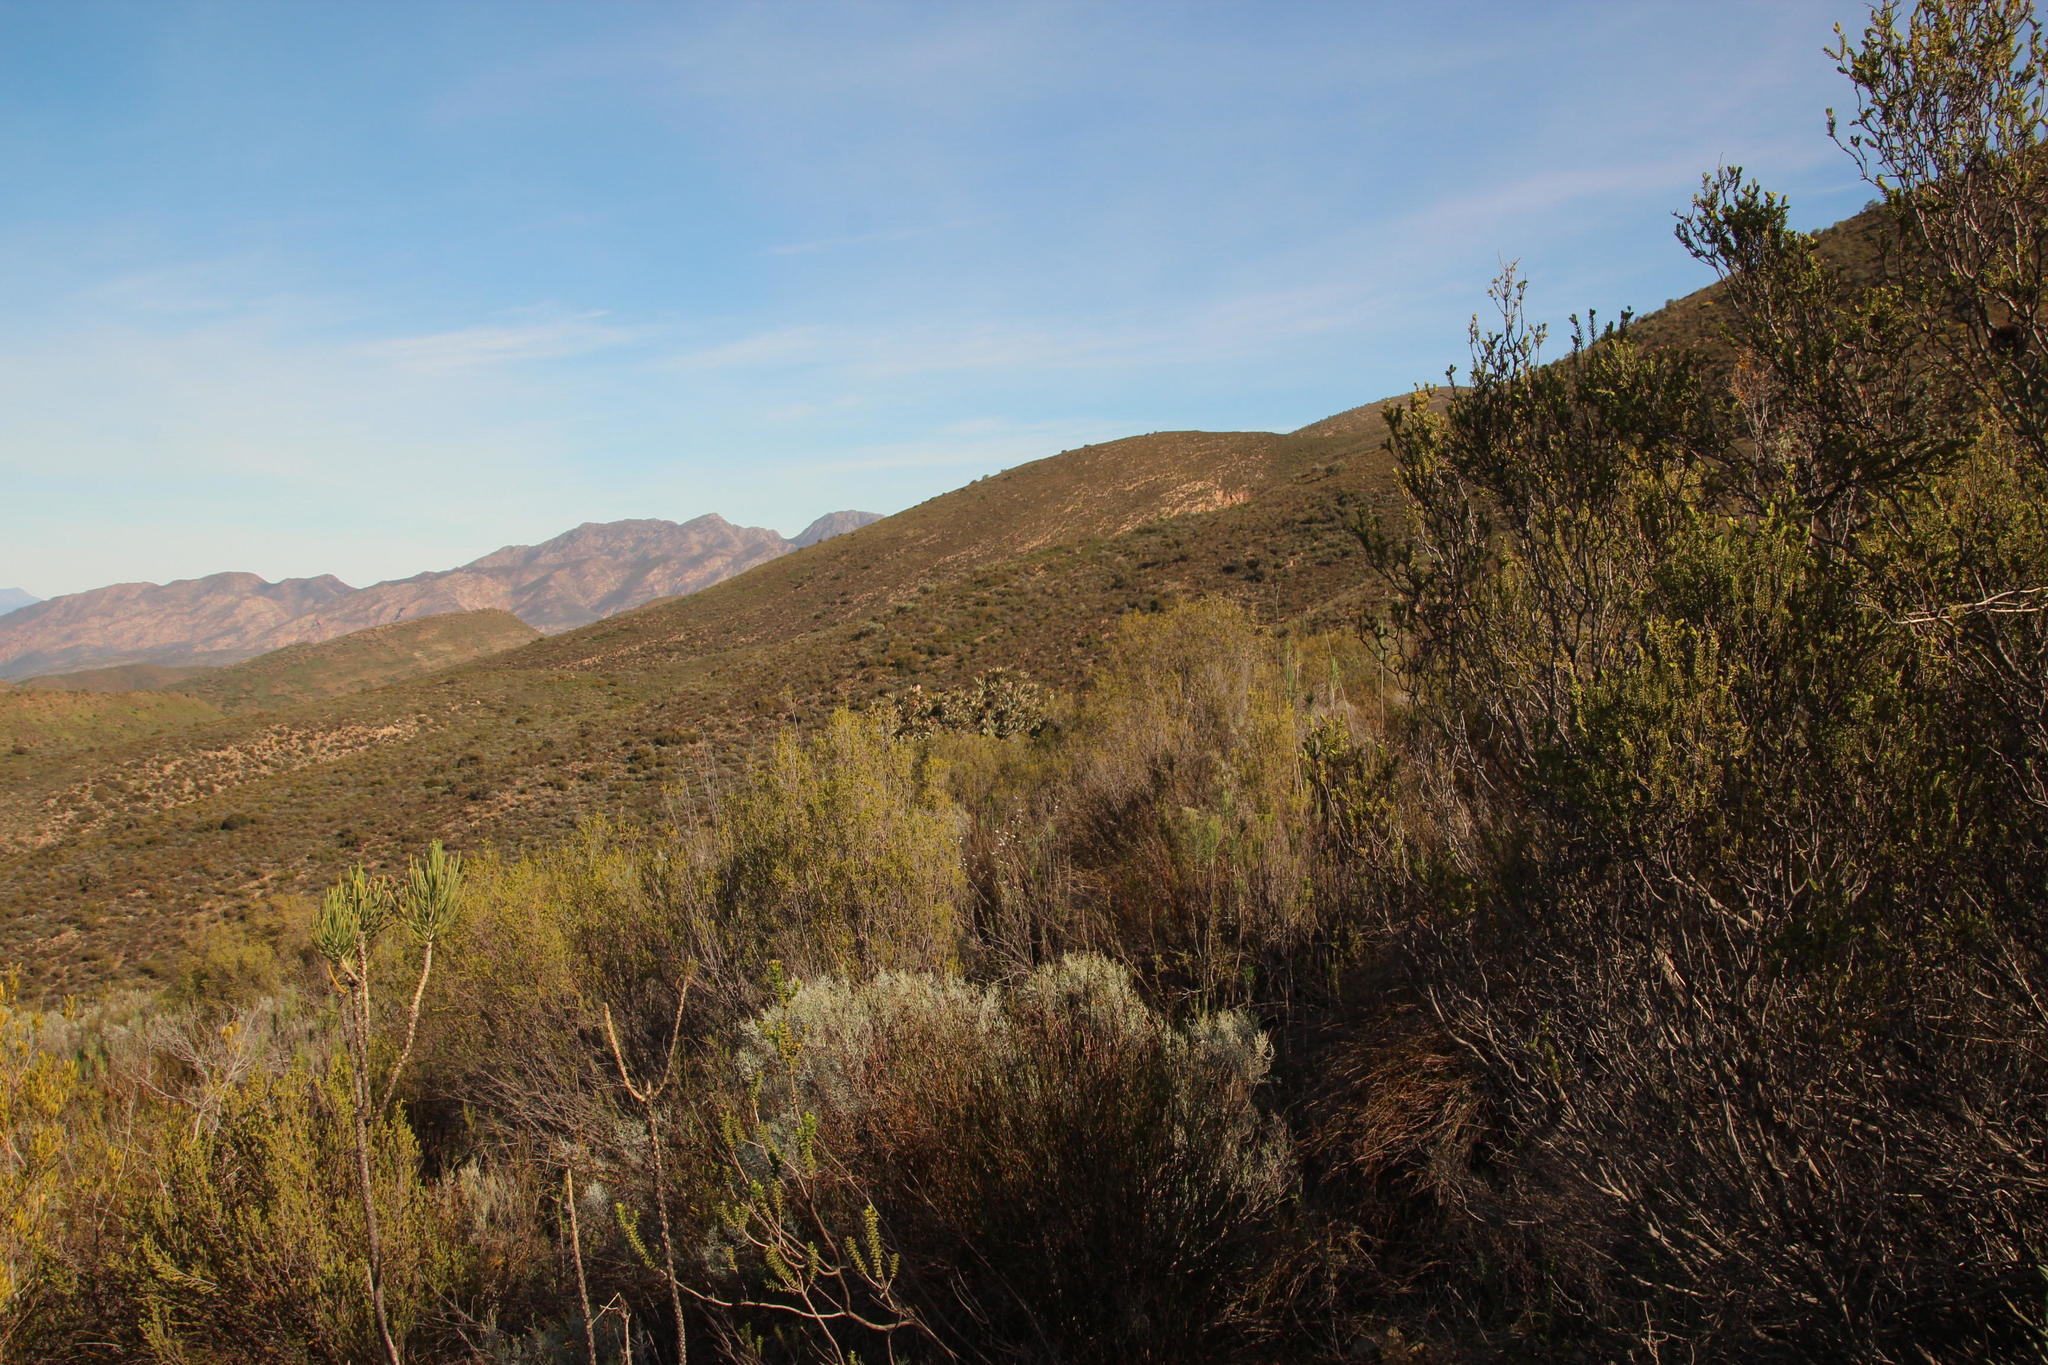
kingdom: Plantae
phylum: Tracheophyta
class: Magnoliopsida
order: Proteales
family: Proteaceae
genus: Protea
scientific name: Protea nitida
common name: Tree protea
